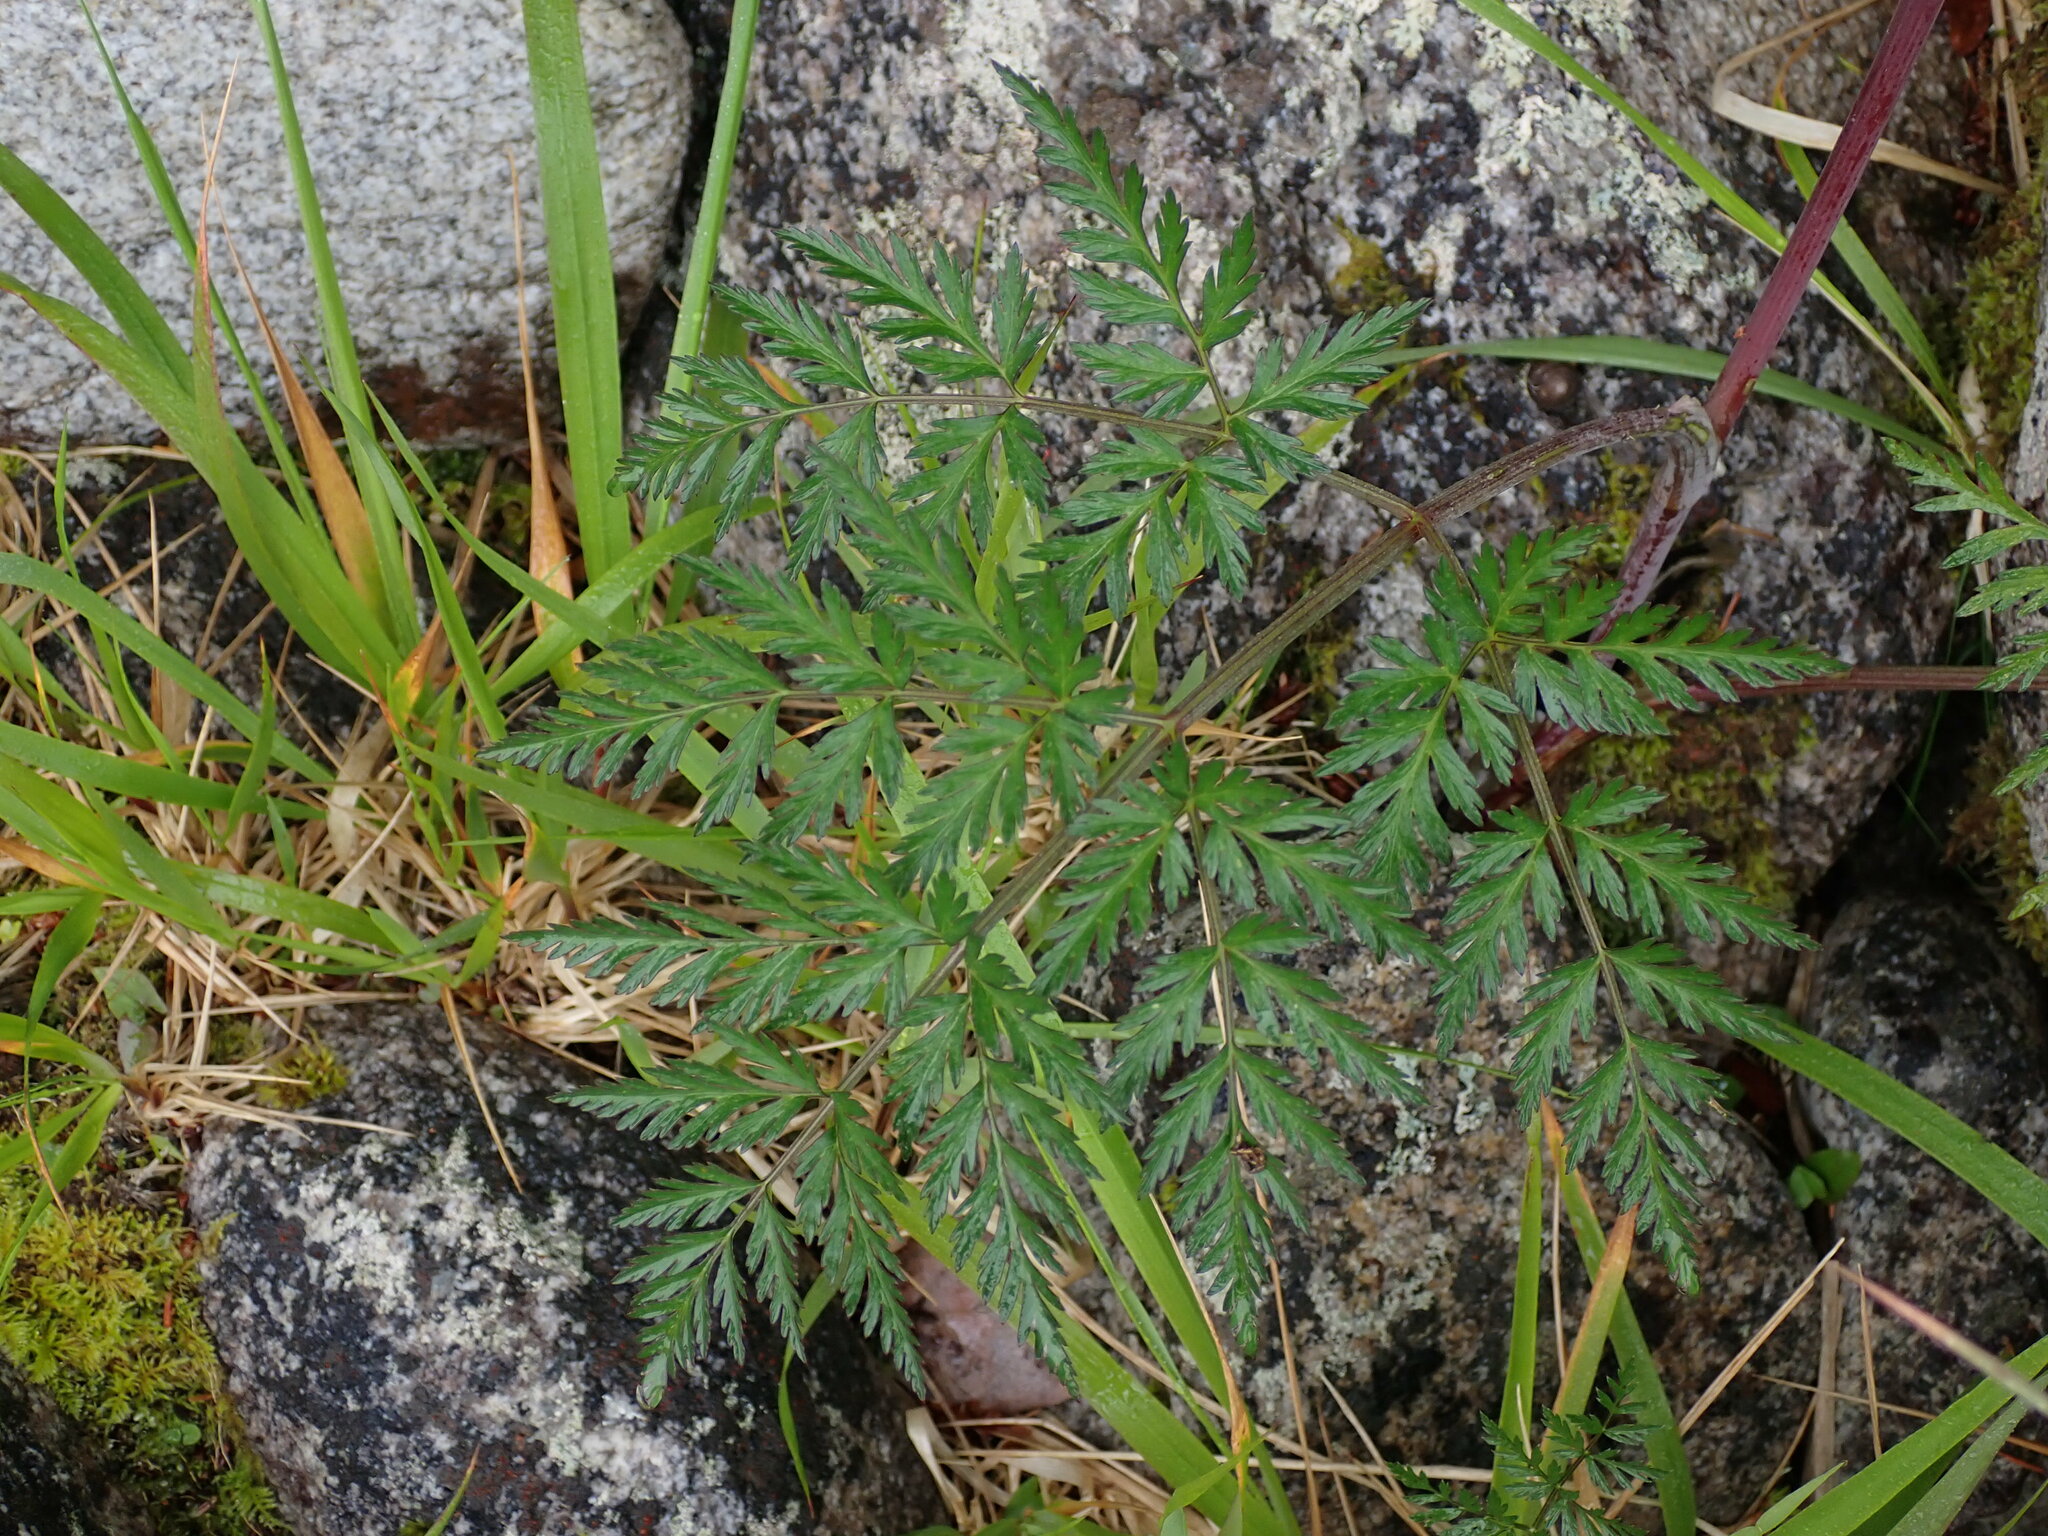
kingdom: Plantae
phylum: Tracheophyta
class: Magnoliopsida
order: Apiales
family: Apiaceae
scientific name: Apiaceae
